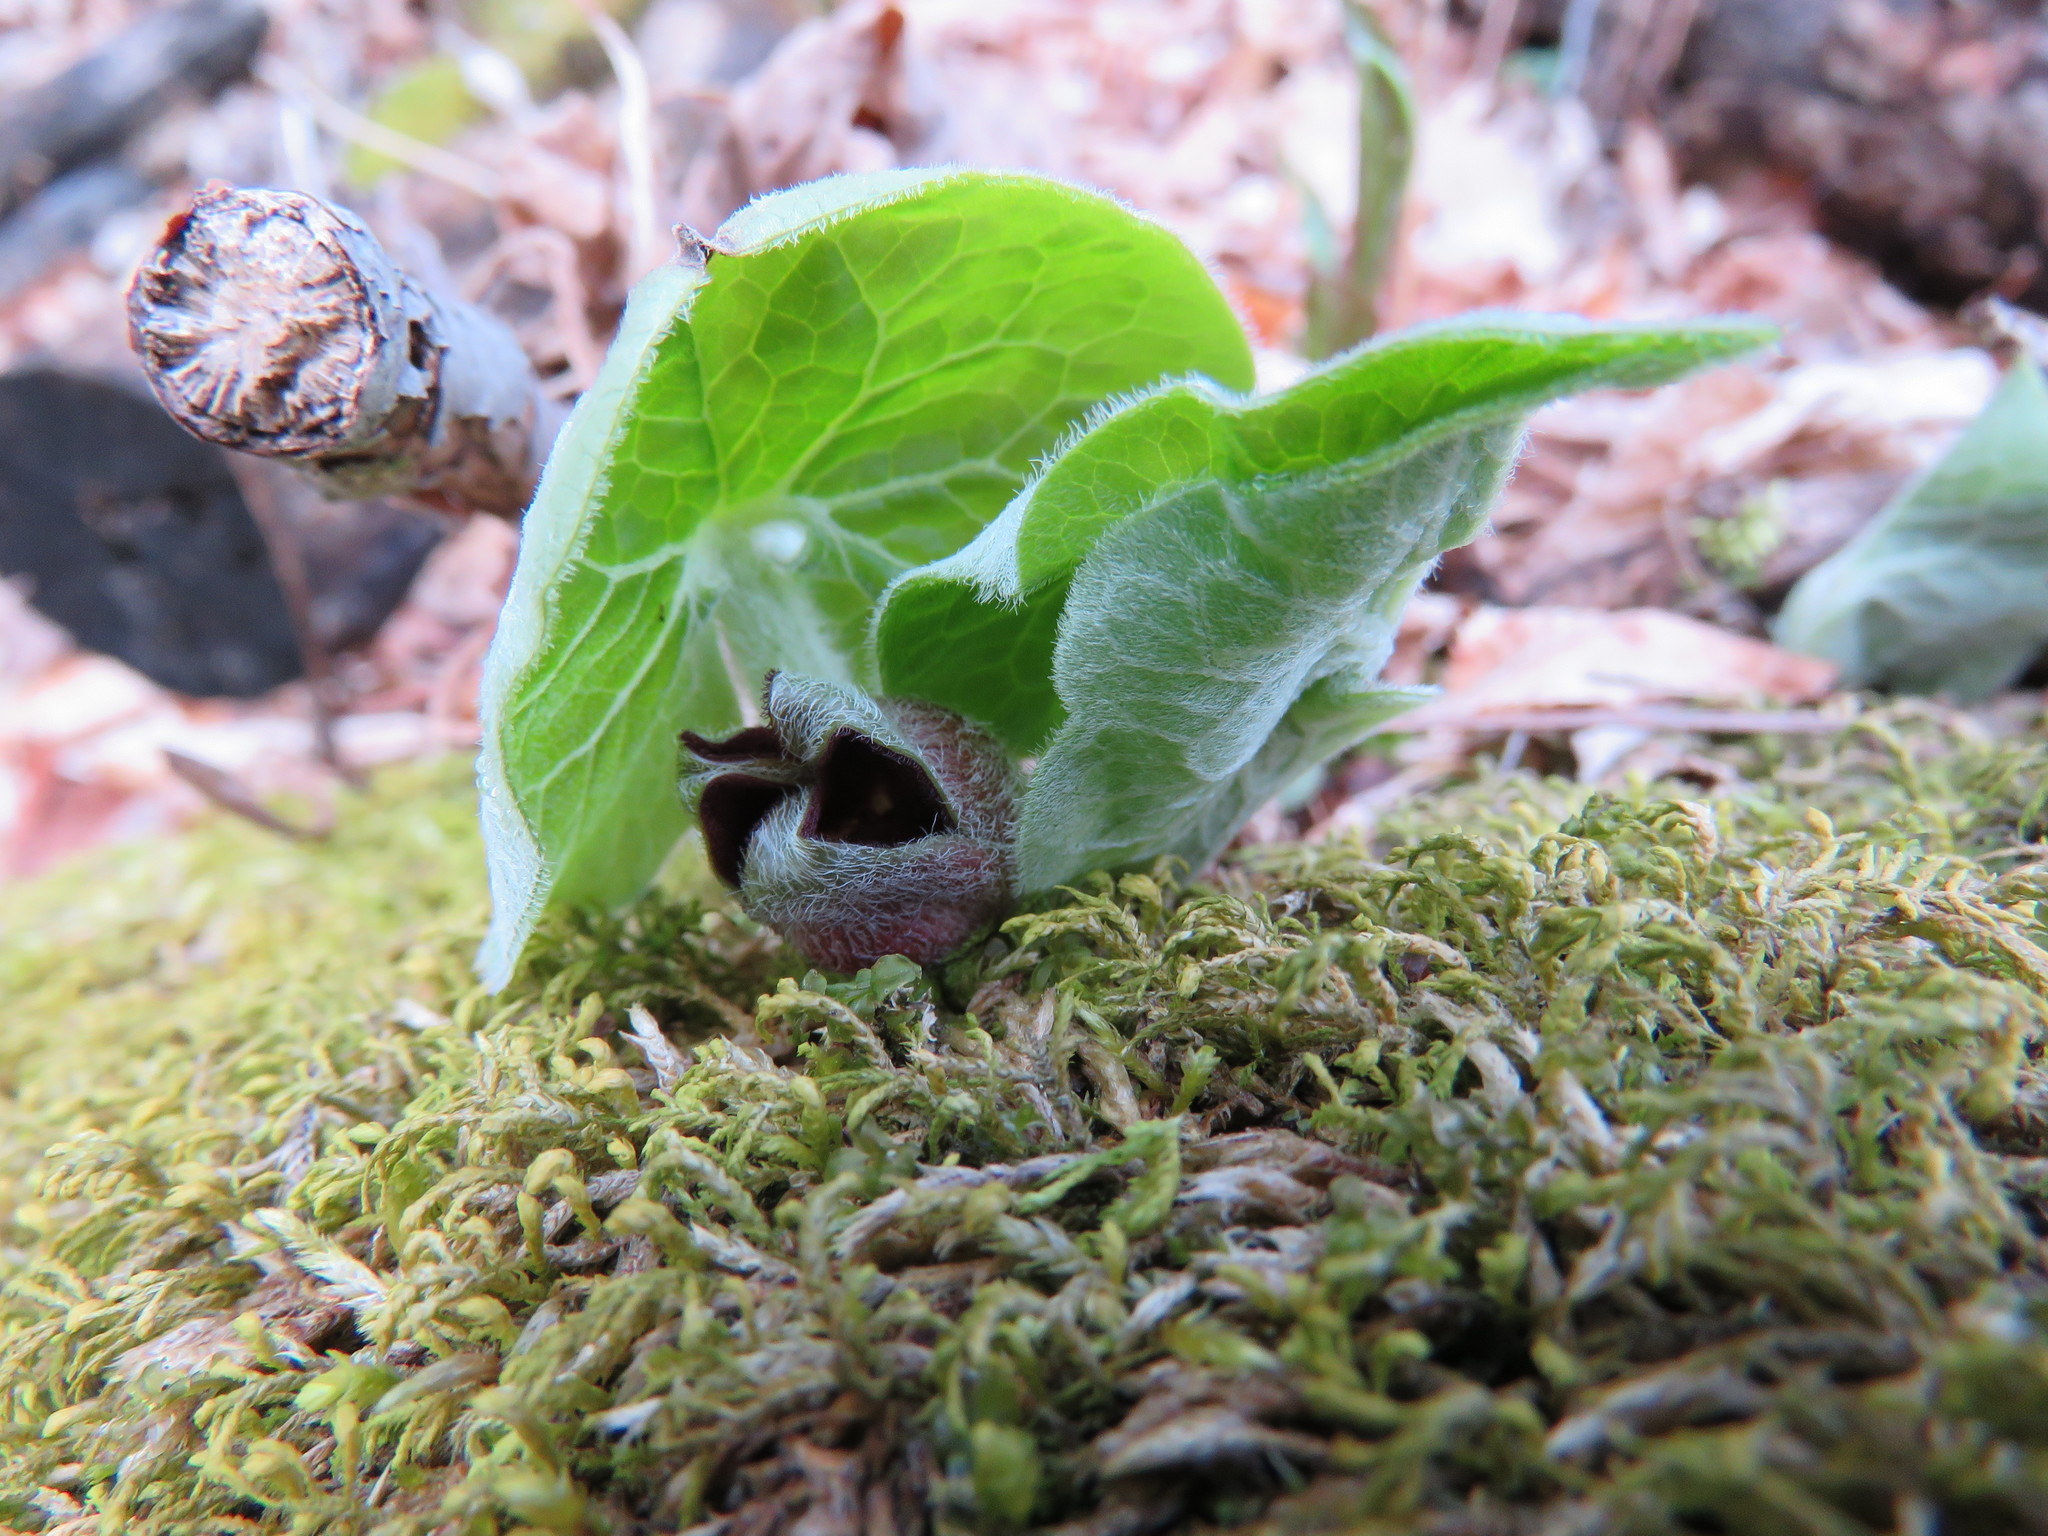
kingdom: Plantae
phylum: Tracheophyta
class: Magnoliopsida
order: Piperales
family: Aristolochiaceae
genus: Asarum
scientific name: Asarum canadense
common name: Wild ginger
